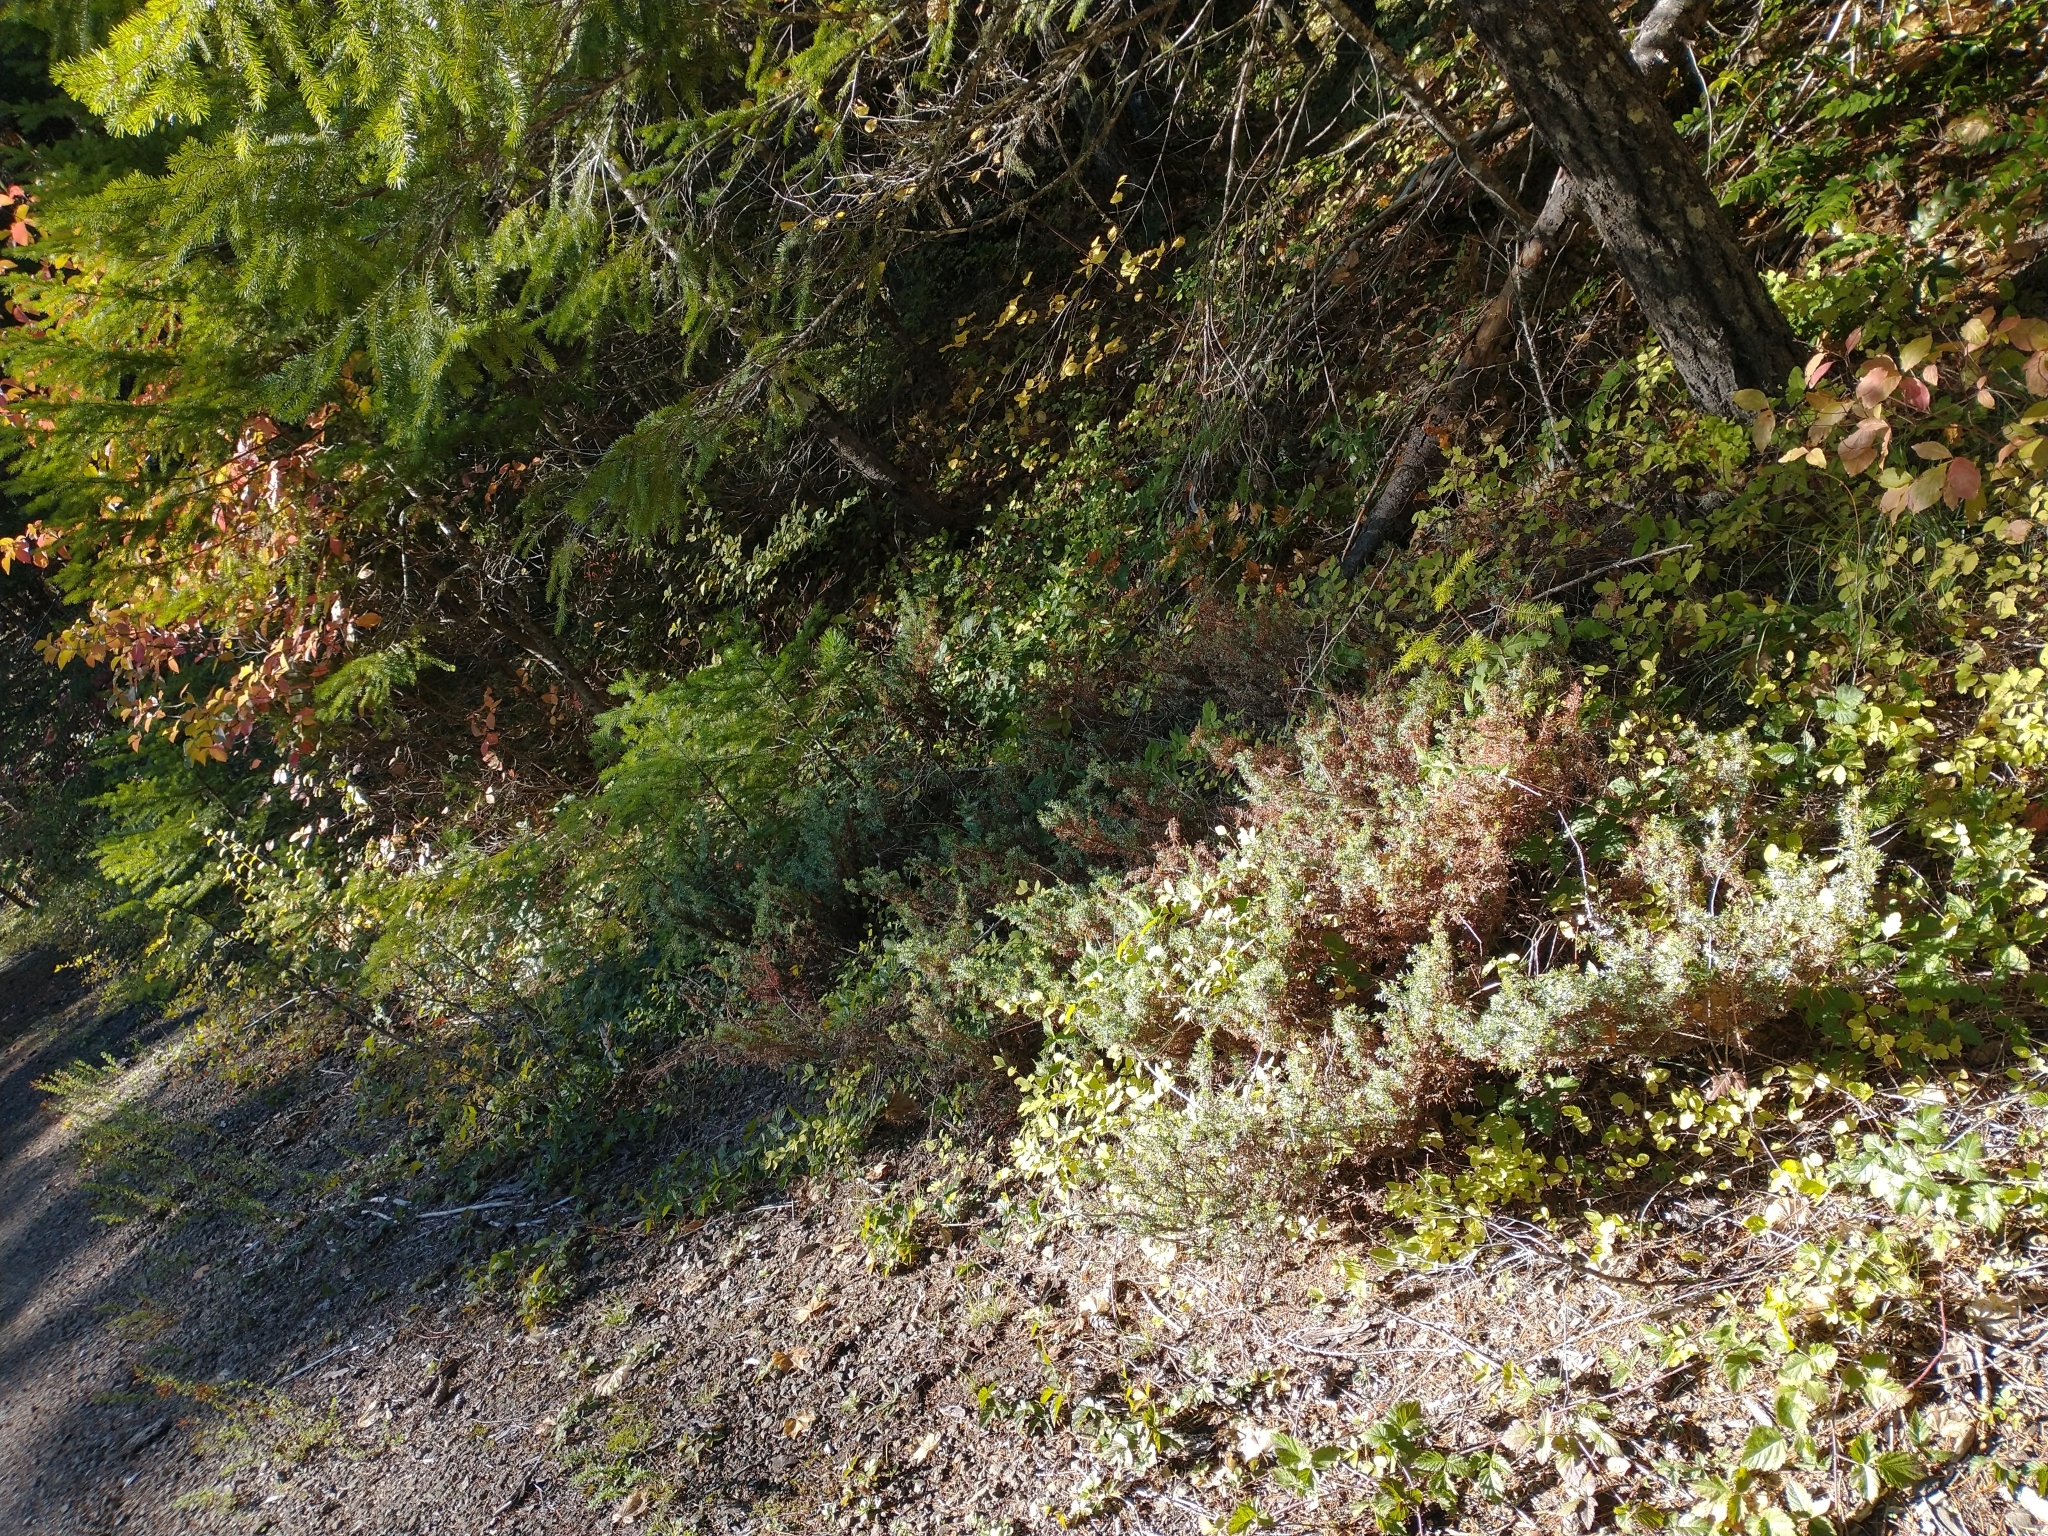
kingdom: Plantae
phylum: Tracheophyta
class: Pinopsida
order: Pinales
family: Cupressaceae
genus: Juniperus
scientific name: Juniperus communis
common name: Common juniper
